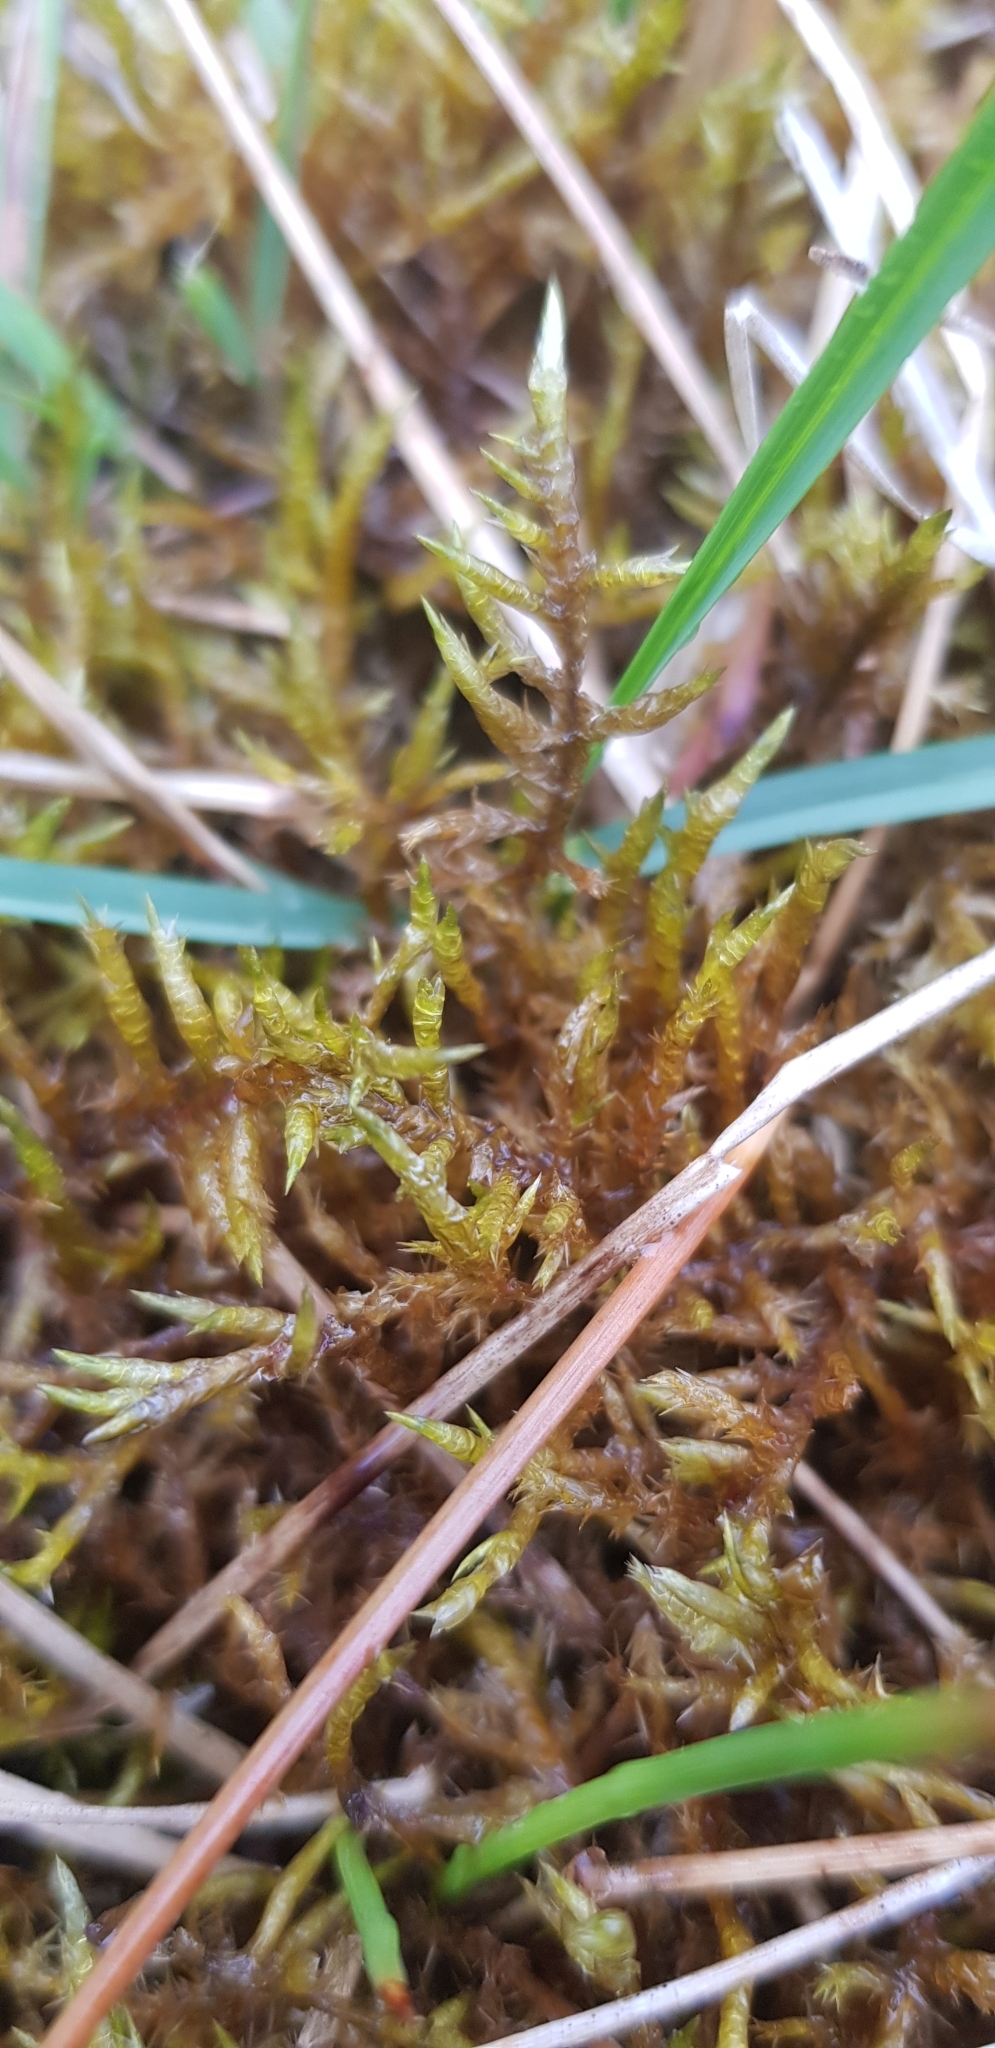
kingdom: Plantae
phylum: Bryophyta
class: Bryopsida
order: Hypnales
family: Pylaisiaceae
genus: Calliergonella
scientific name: Calliergonella cuspidata
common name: Common large wetland moss
